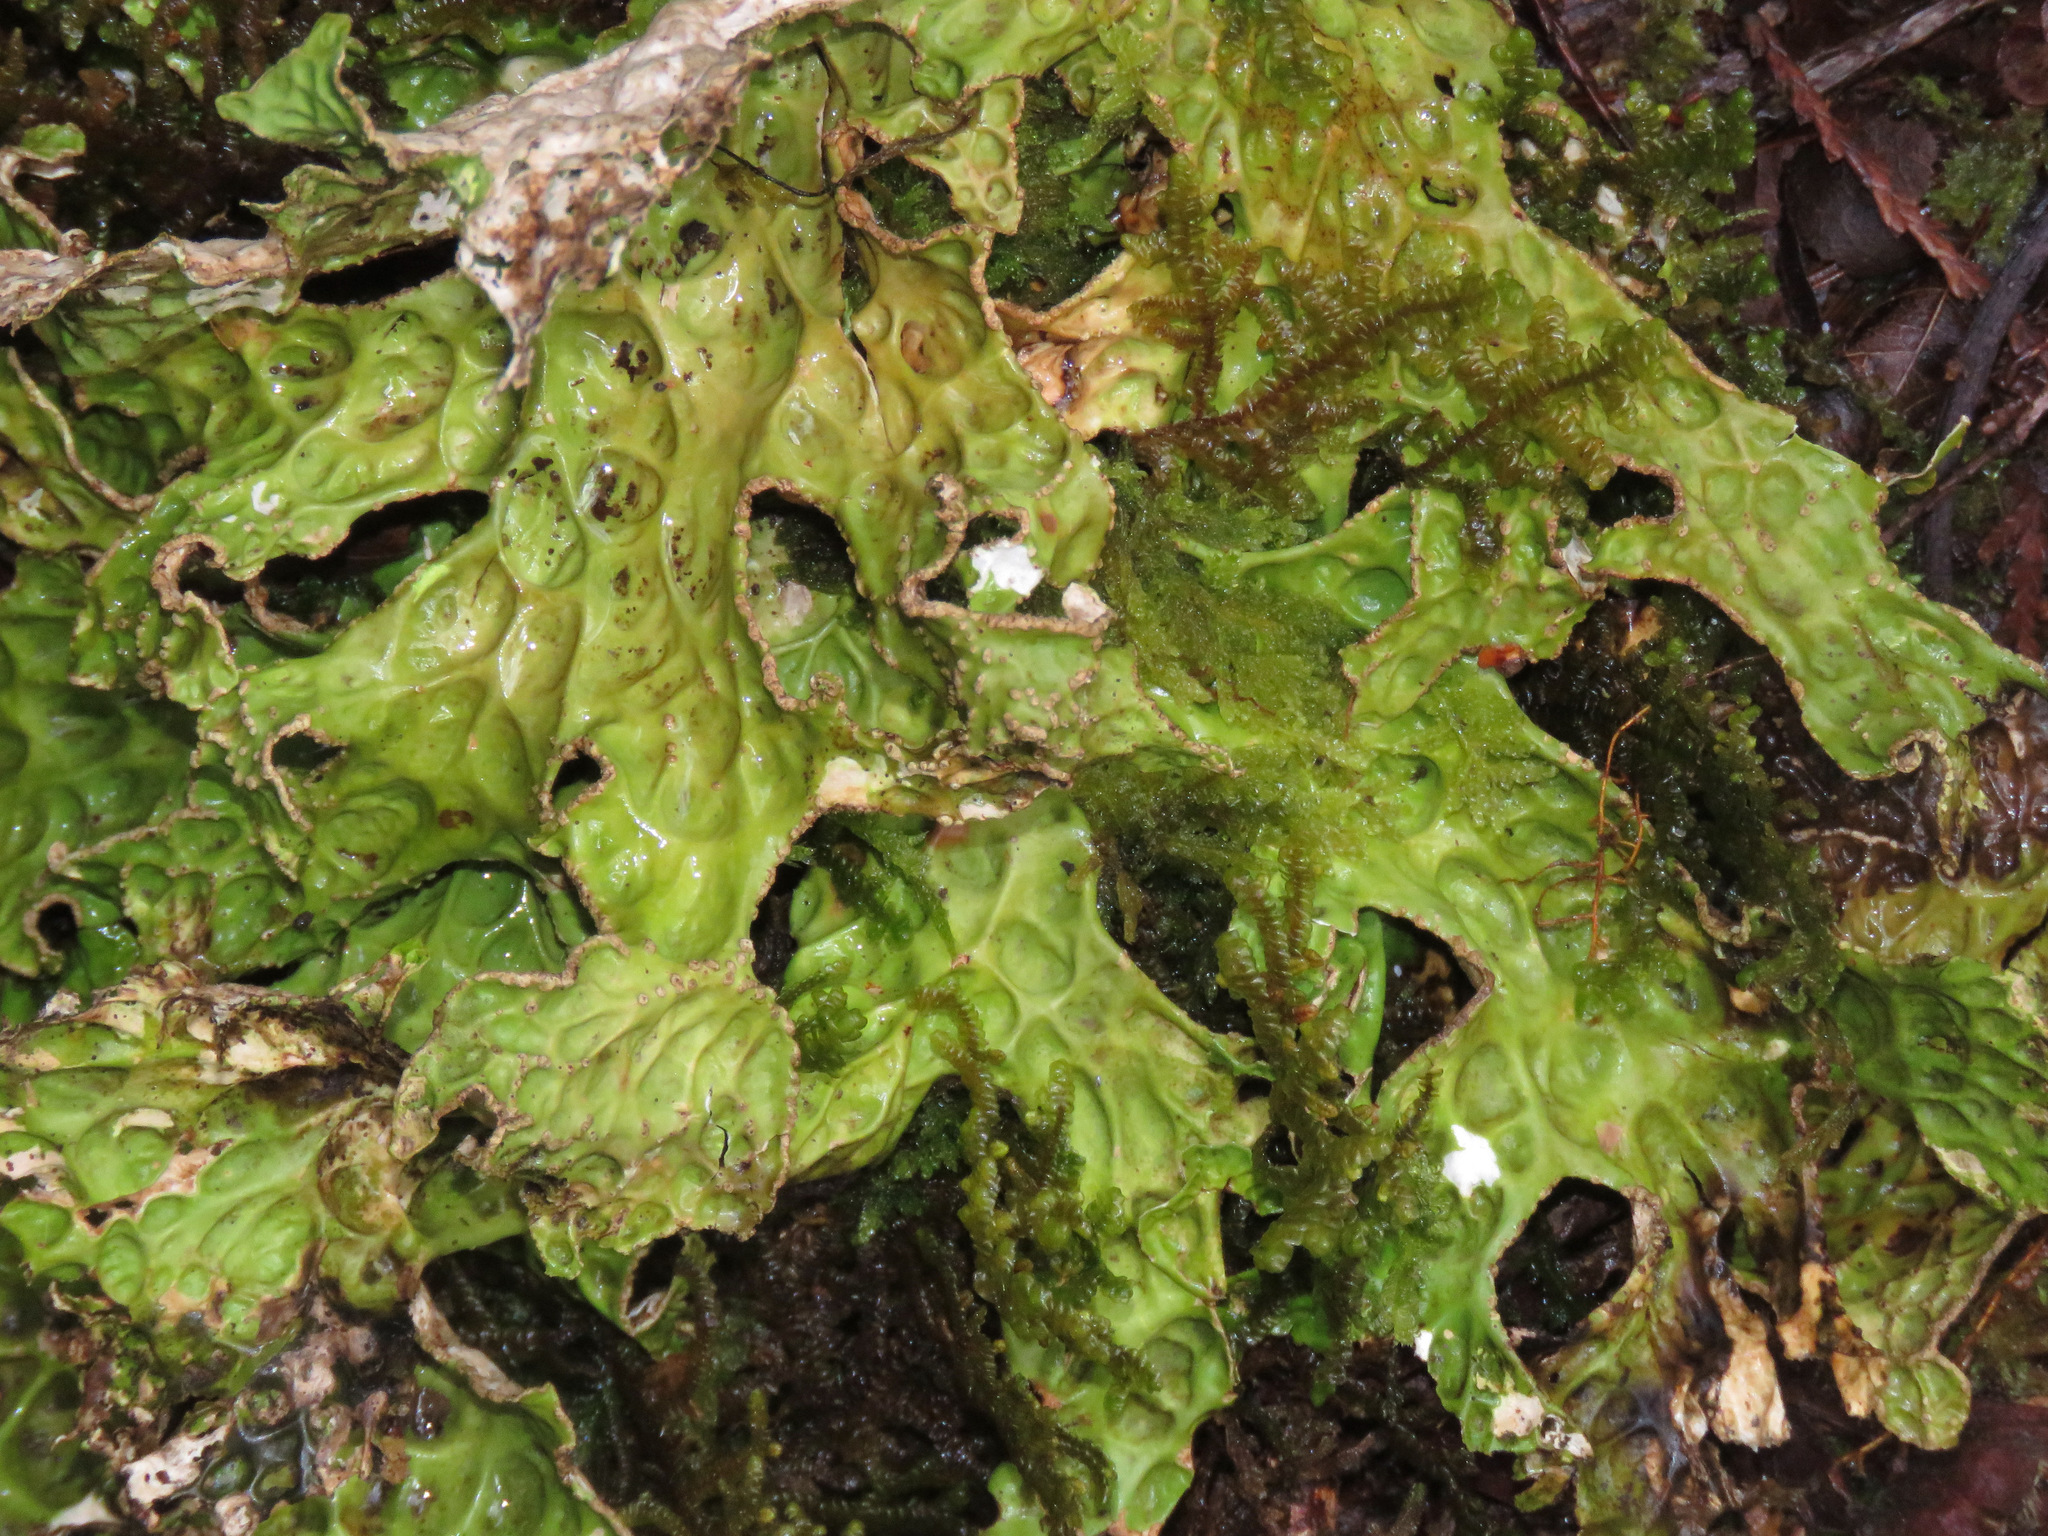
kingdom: Fungi
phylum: Ascomycota
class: Lecanoromycetes
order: Peltigerales
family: Lobariaceae
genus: Lobaria
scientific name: Lobaria pulmonaria
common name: Lungwort
